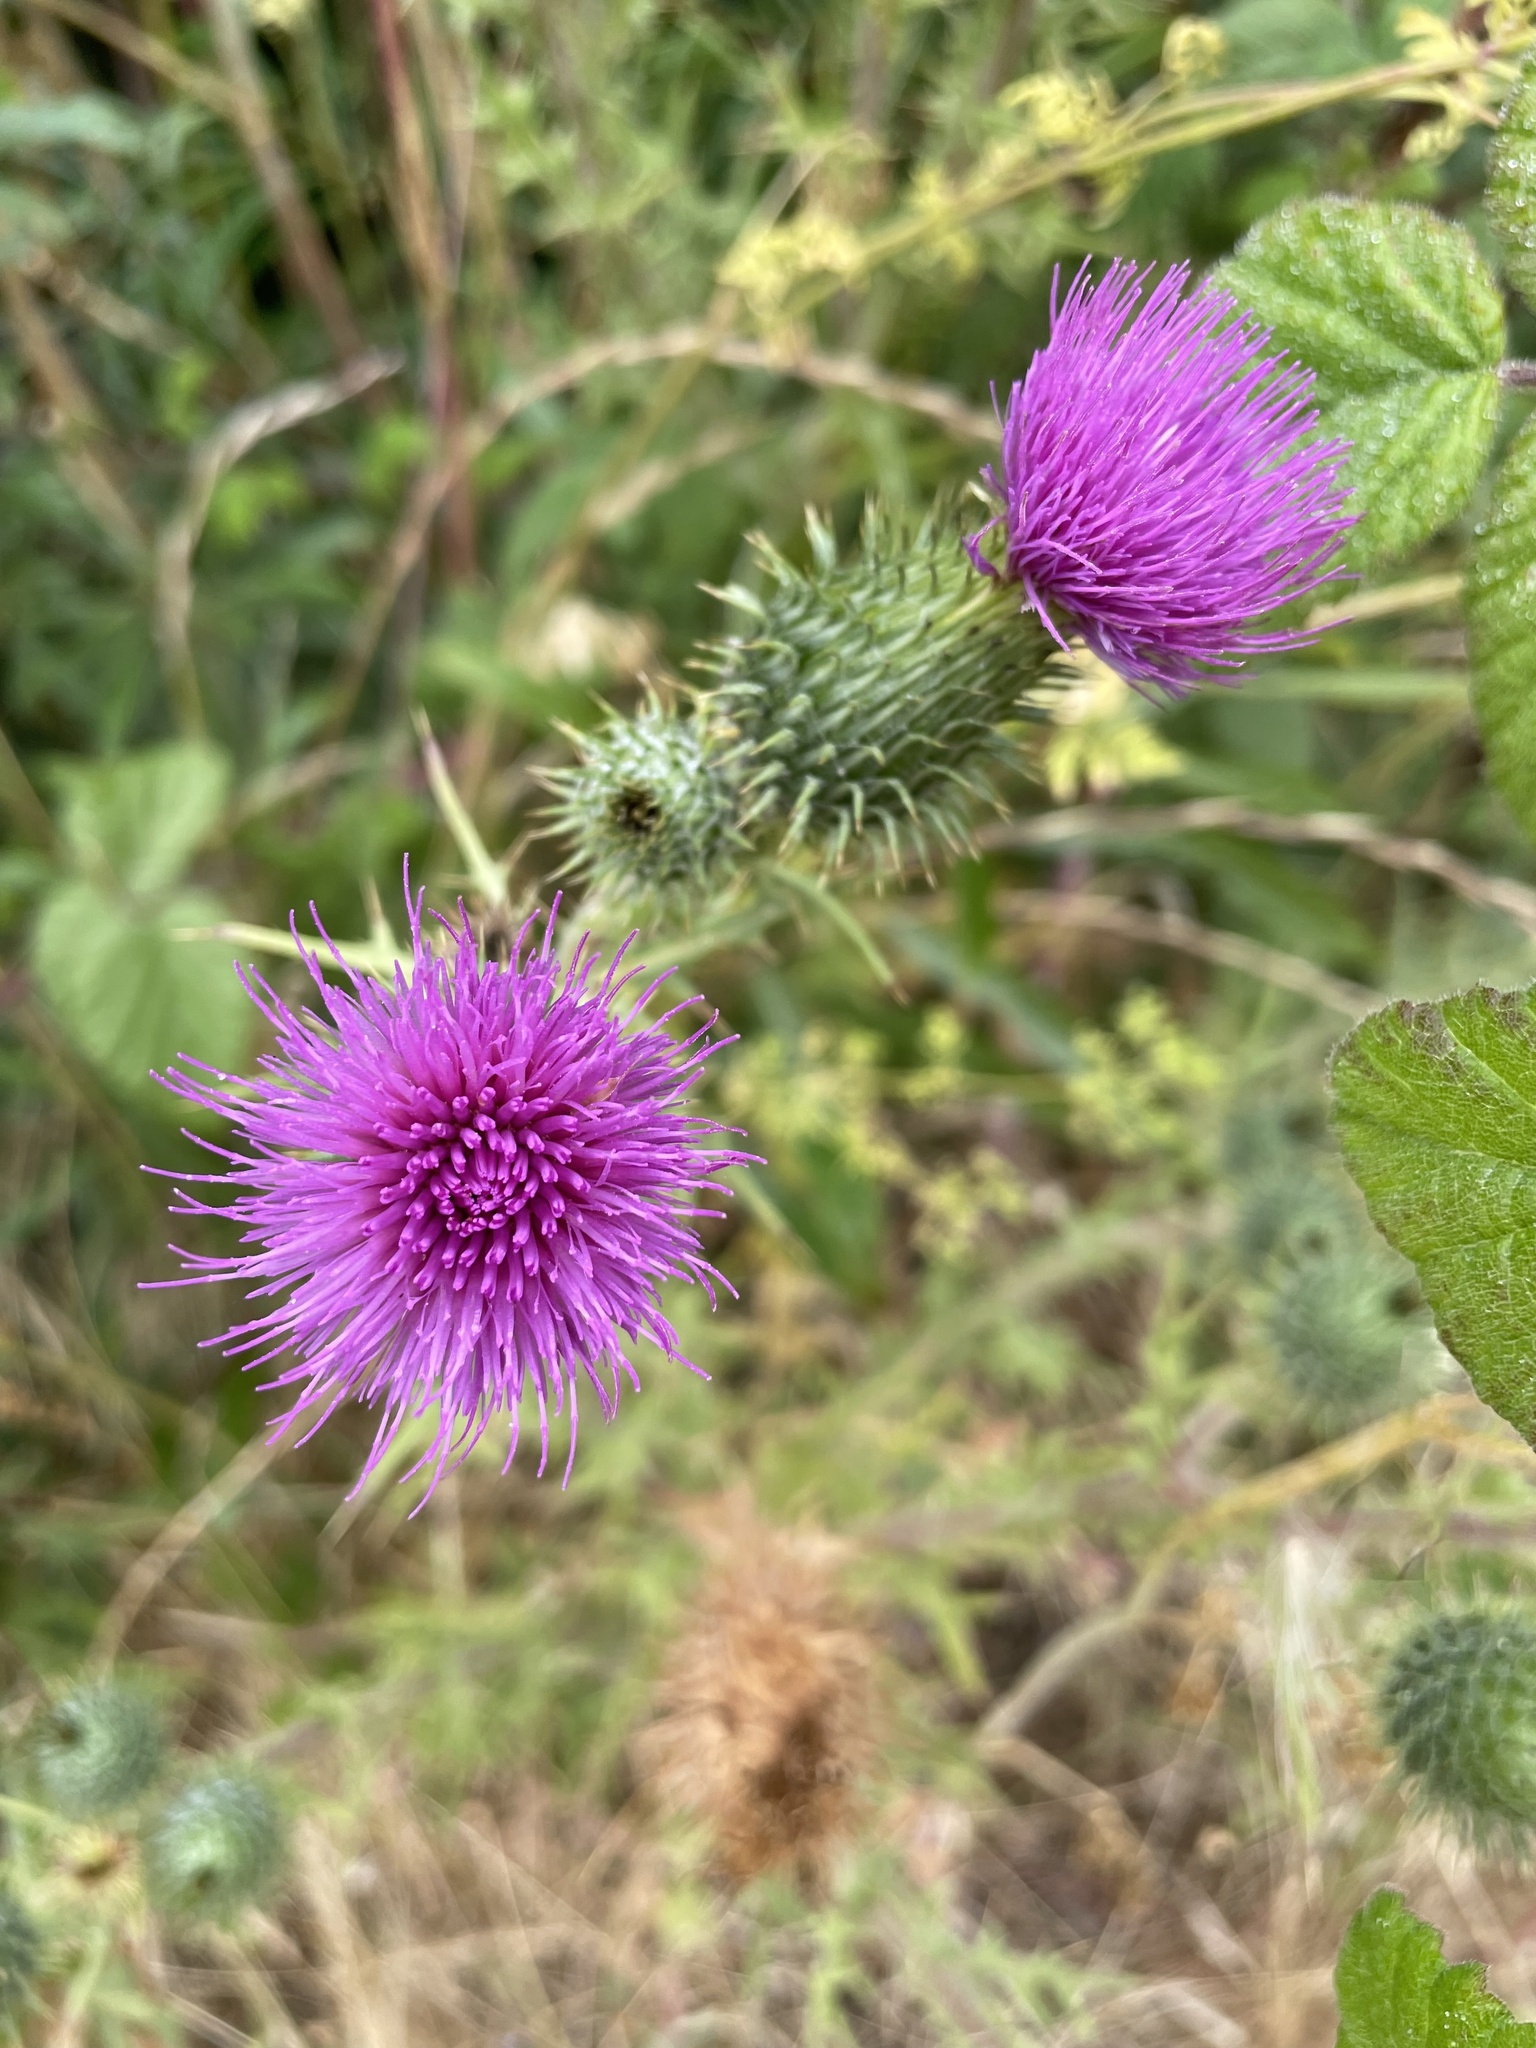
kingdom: Plantae
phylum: Tracheophyta
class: Magnoliopsida
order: Asterales
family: Asteraceae
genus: Cirsium
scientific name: Cirsium vulgare
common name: Bull thistle
